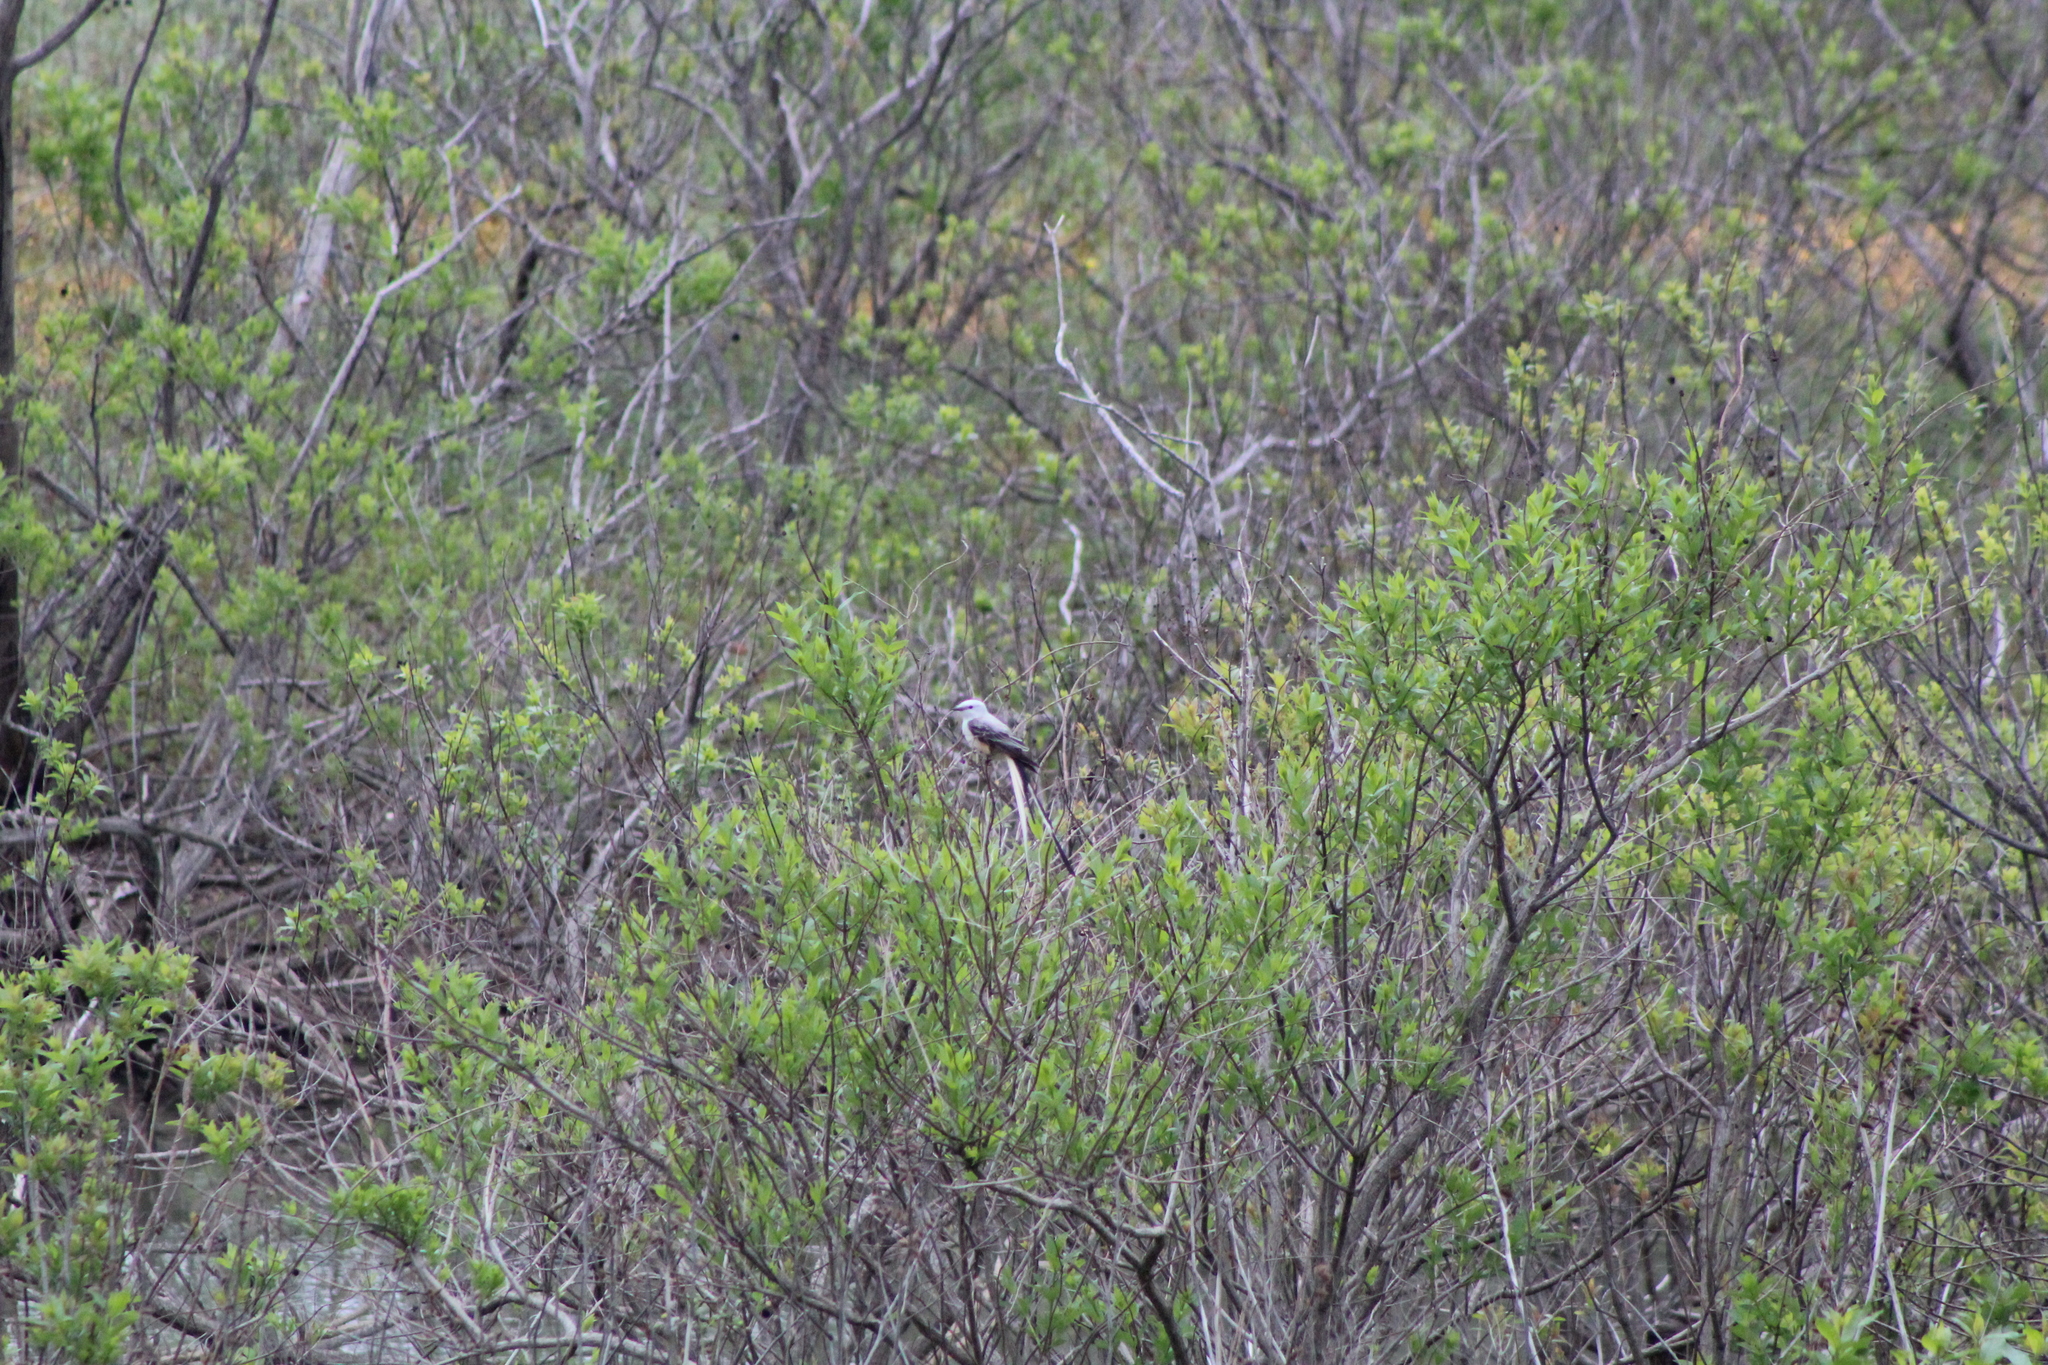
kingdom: Animalia
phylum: Chordata
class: Aves
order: Passeriformes
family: Tyrannidae
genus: Tyrannus
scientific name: Tyrannus forficatus
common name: Scissor-tailed flycatcher
